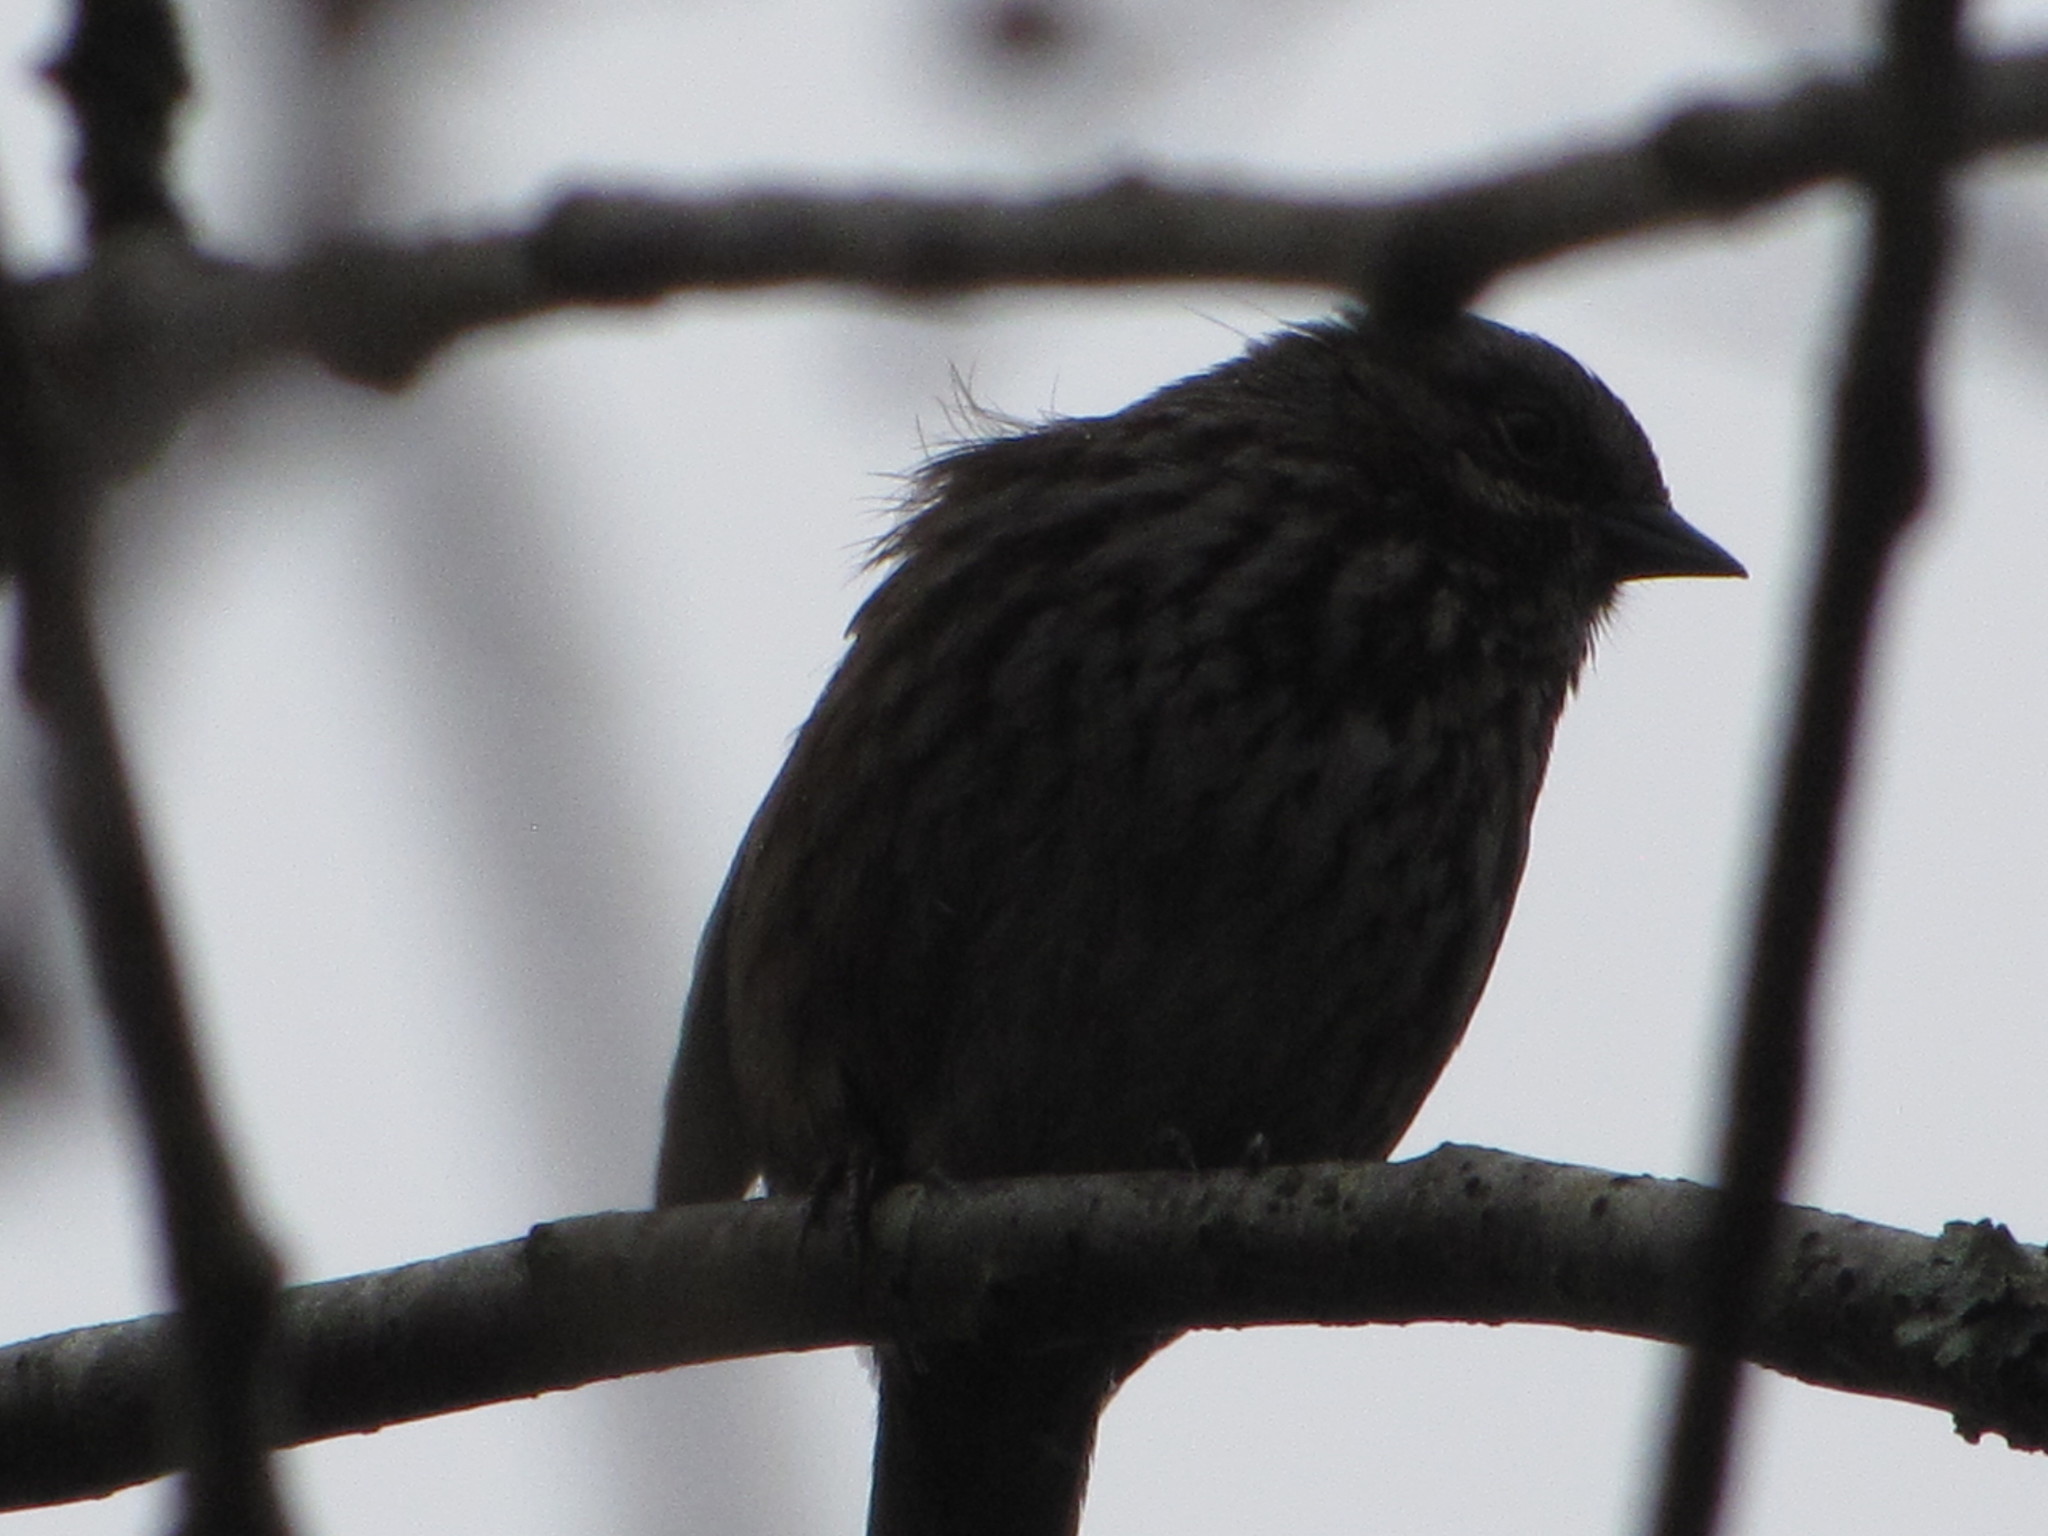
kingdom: Animalia
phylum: Chordata
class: Aves
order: Passeriformes
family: Passerellidae
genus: Melospiza
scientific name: Melospiza melodia
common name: Song sparrow
